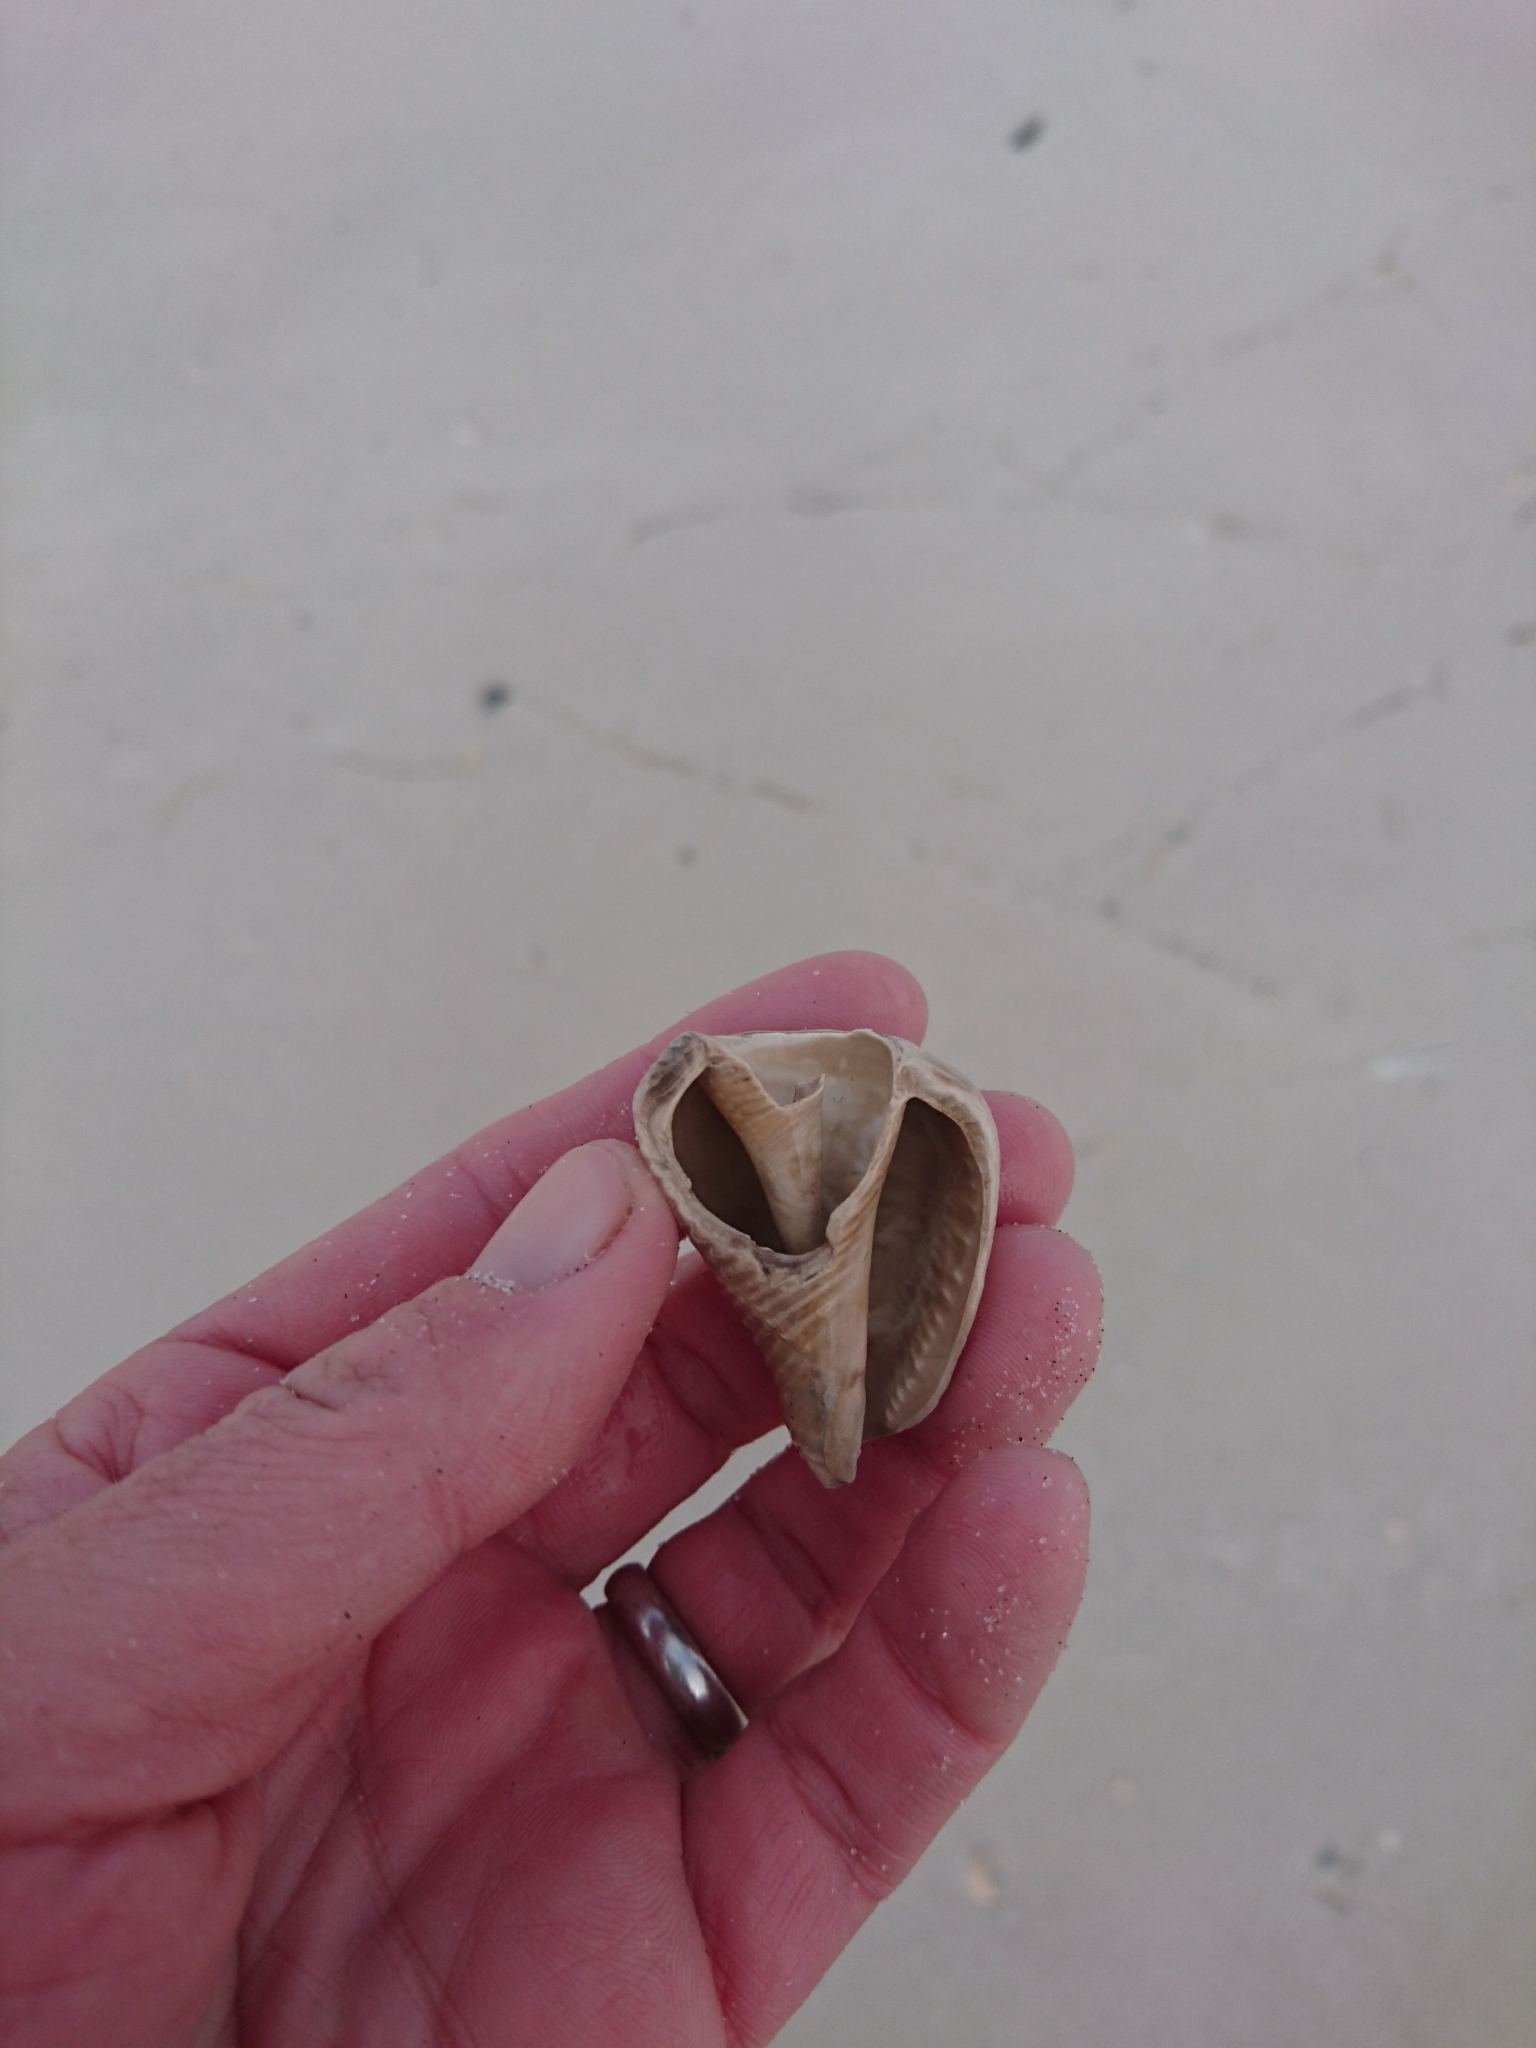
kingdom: Animalia
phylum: Mollusca
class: Gastropoda
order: Littorinimorpha
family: Strombidae
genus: Strombus
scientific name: Strombus alatus
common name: Florida fighting conch
